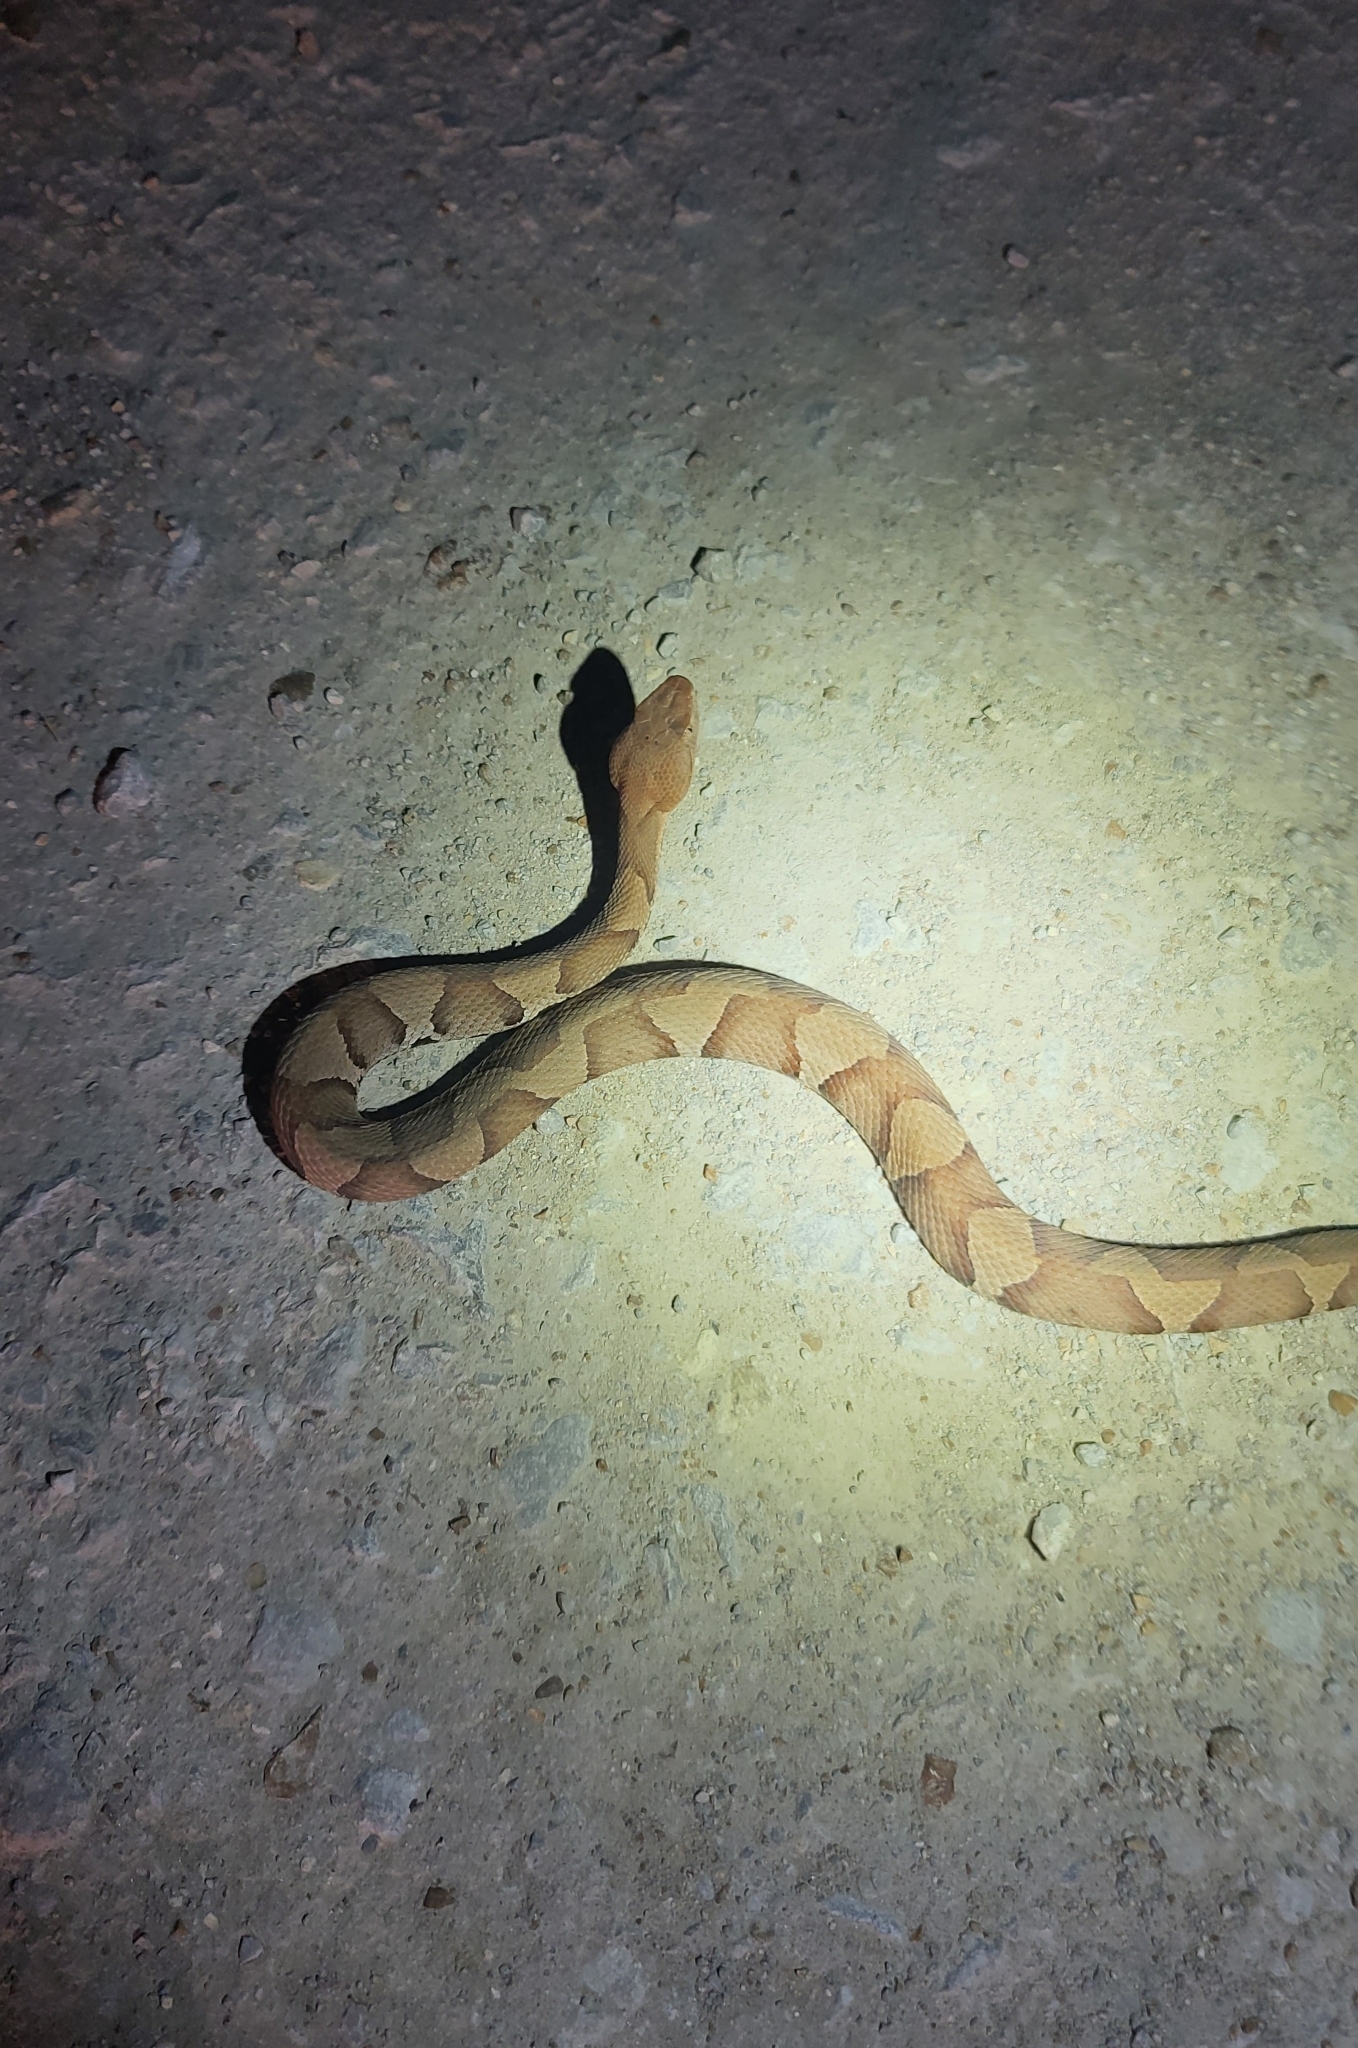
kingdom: Animalia
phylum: Chordata
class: Squamata
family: Viperidae
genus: Agkistrodon
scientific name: Agkistrodon laticinctus
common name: Broad-banded copperhead
